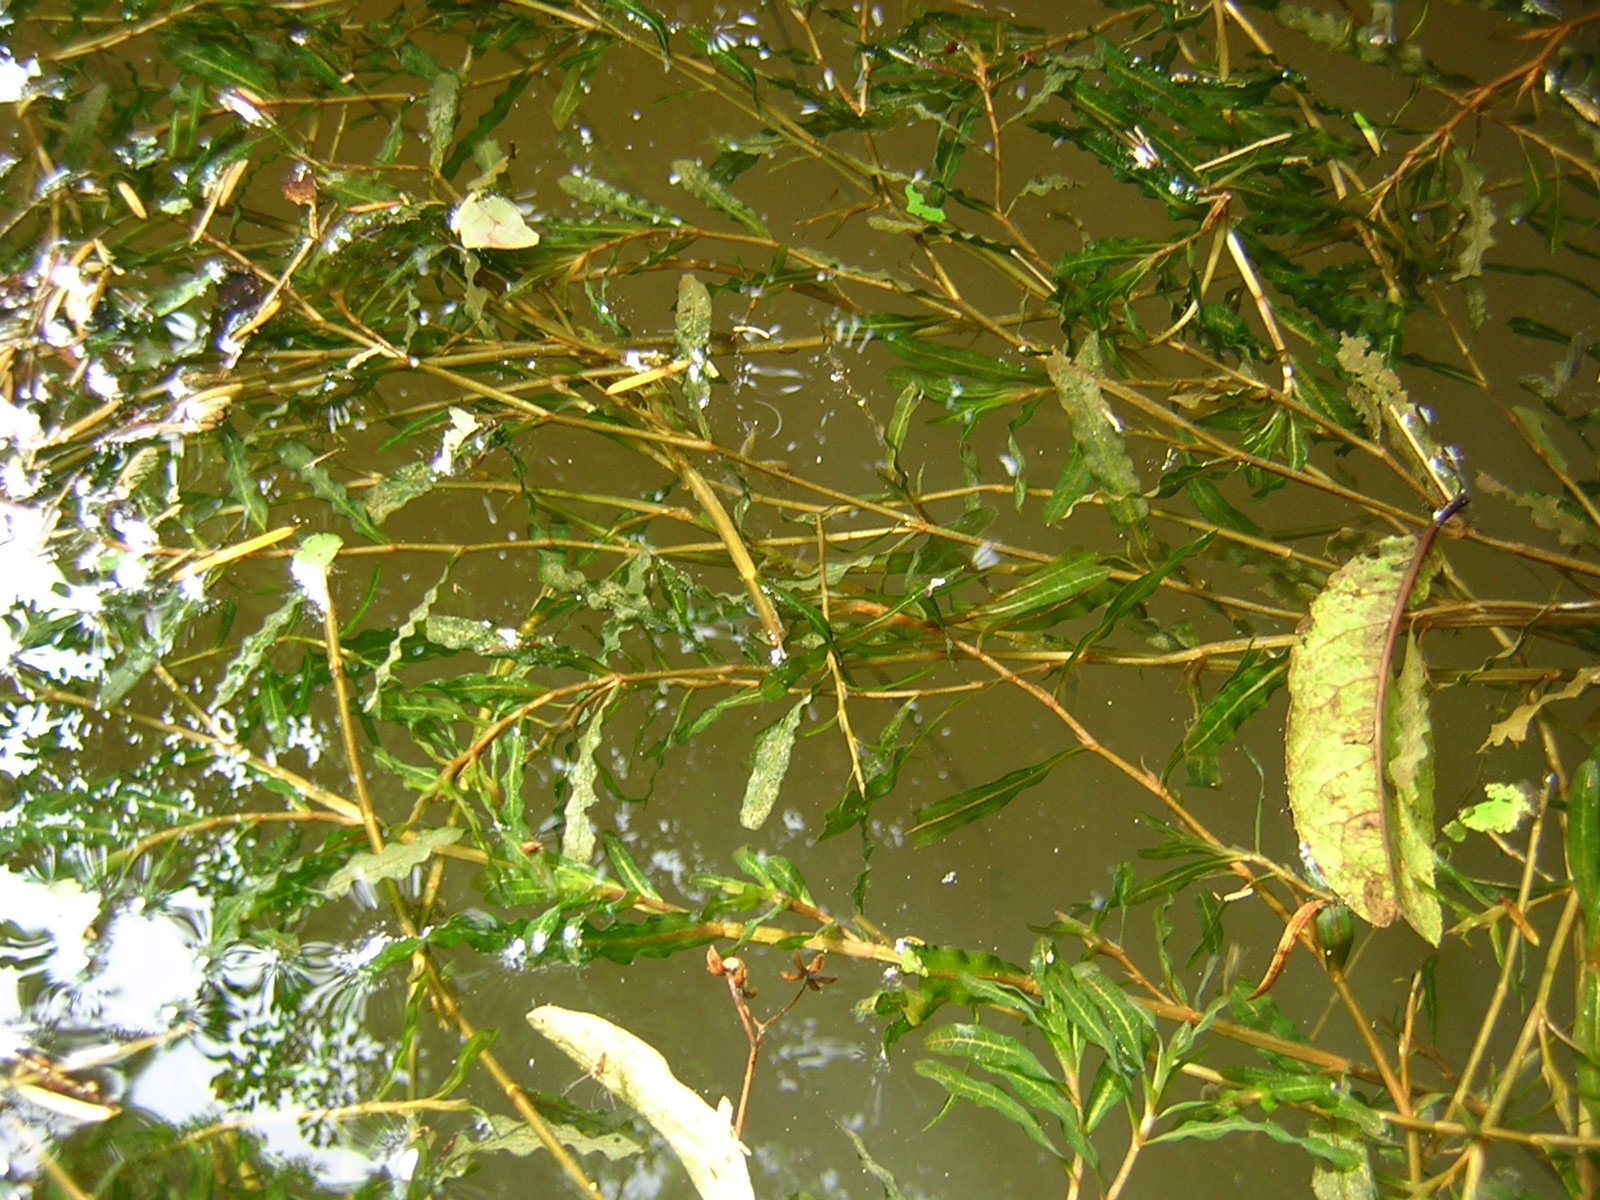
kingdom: Plantae
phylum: Tracheophyta
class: Liliopsida
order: Alismatales
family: Potamogetonaceae
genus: Potamogeton
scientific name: Potamogeton crispus
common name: Curled pondweed
